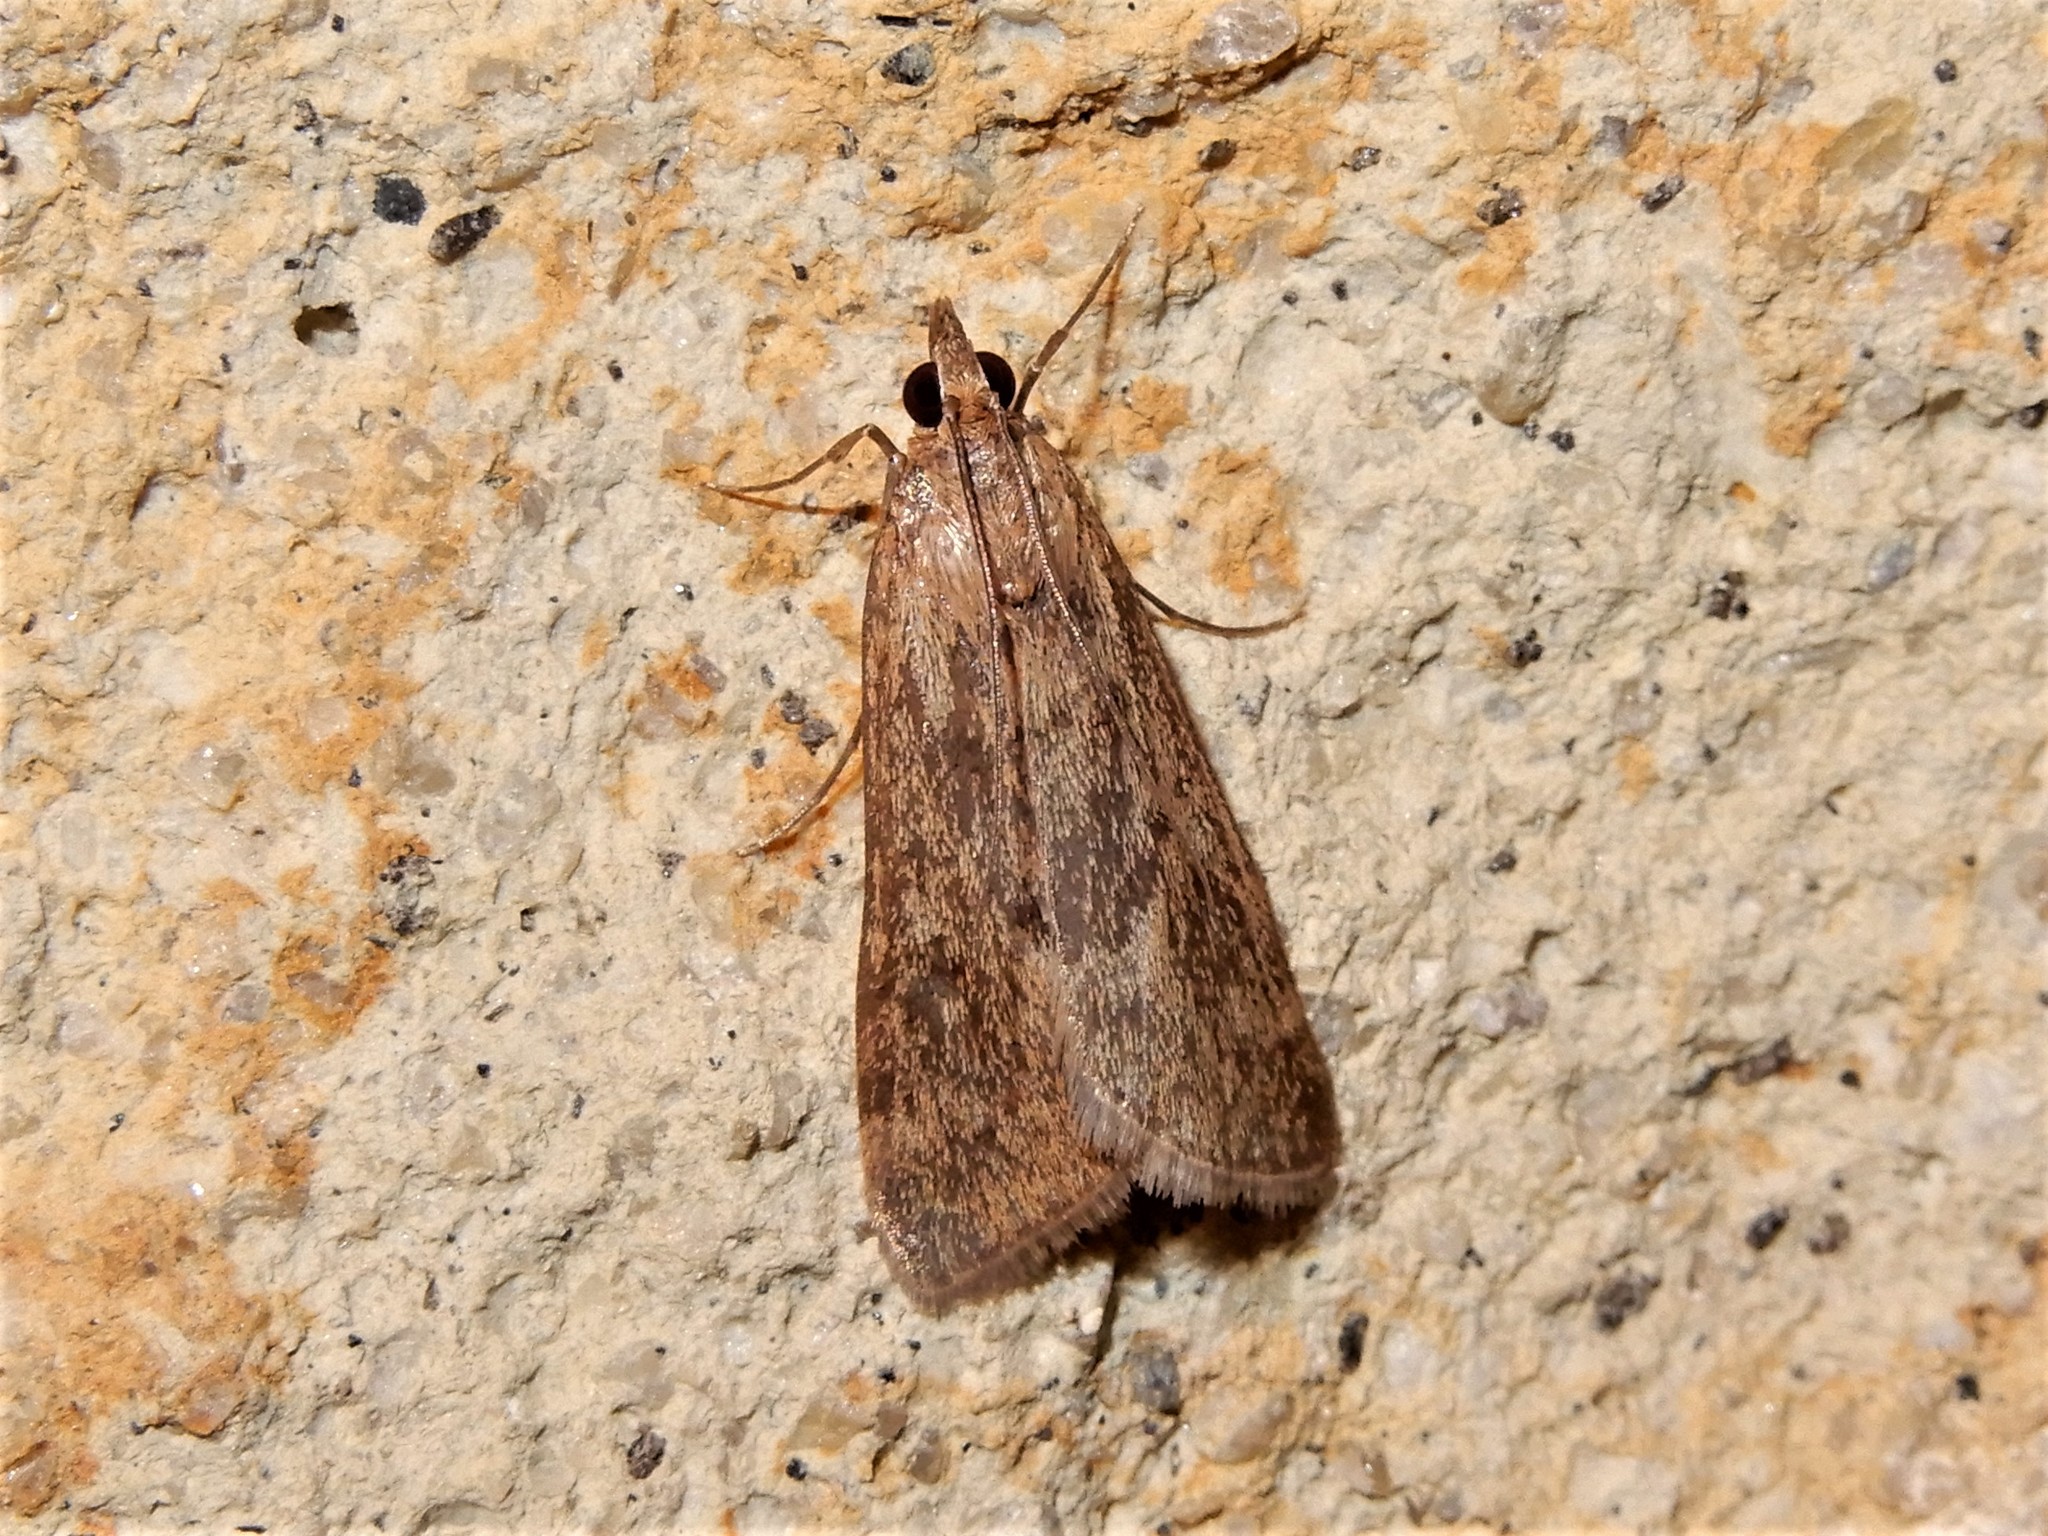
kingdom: Animalia
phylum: Arthropoda
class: Insecta
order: Lepidoptera
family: Crambidae
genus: Achyra
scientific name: Achyra affinitalis
